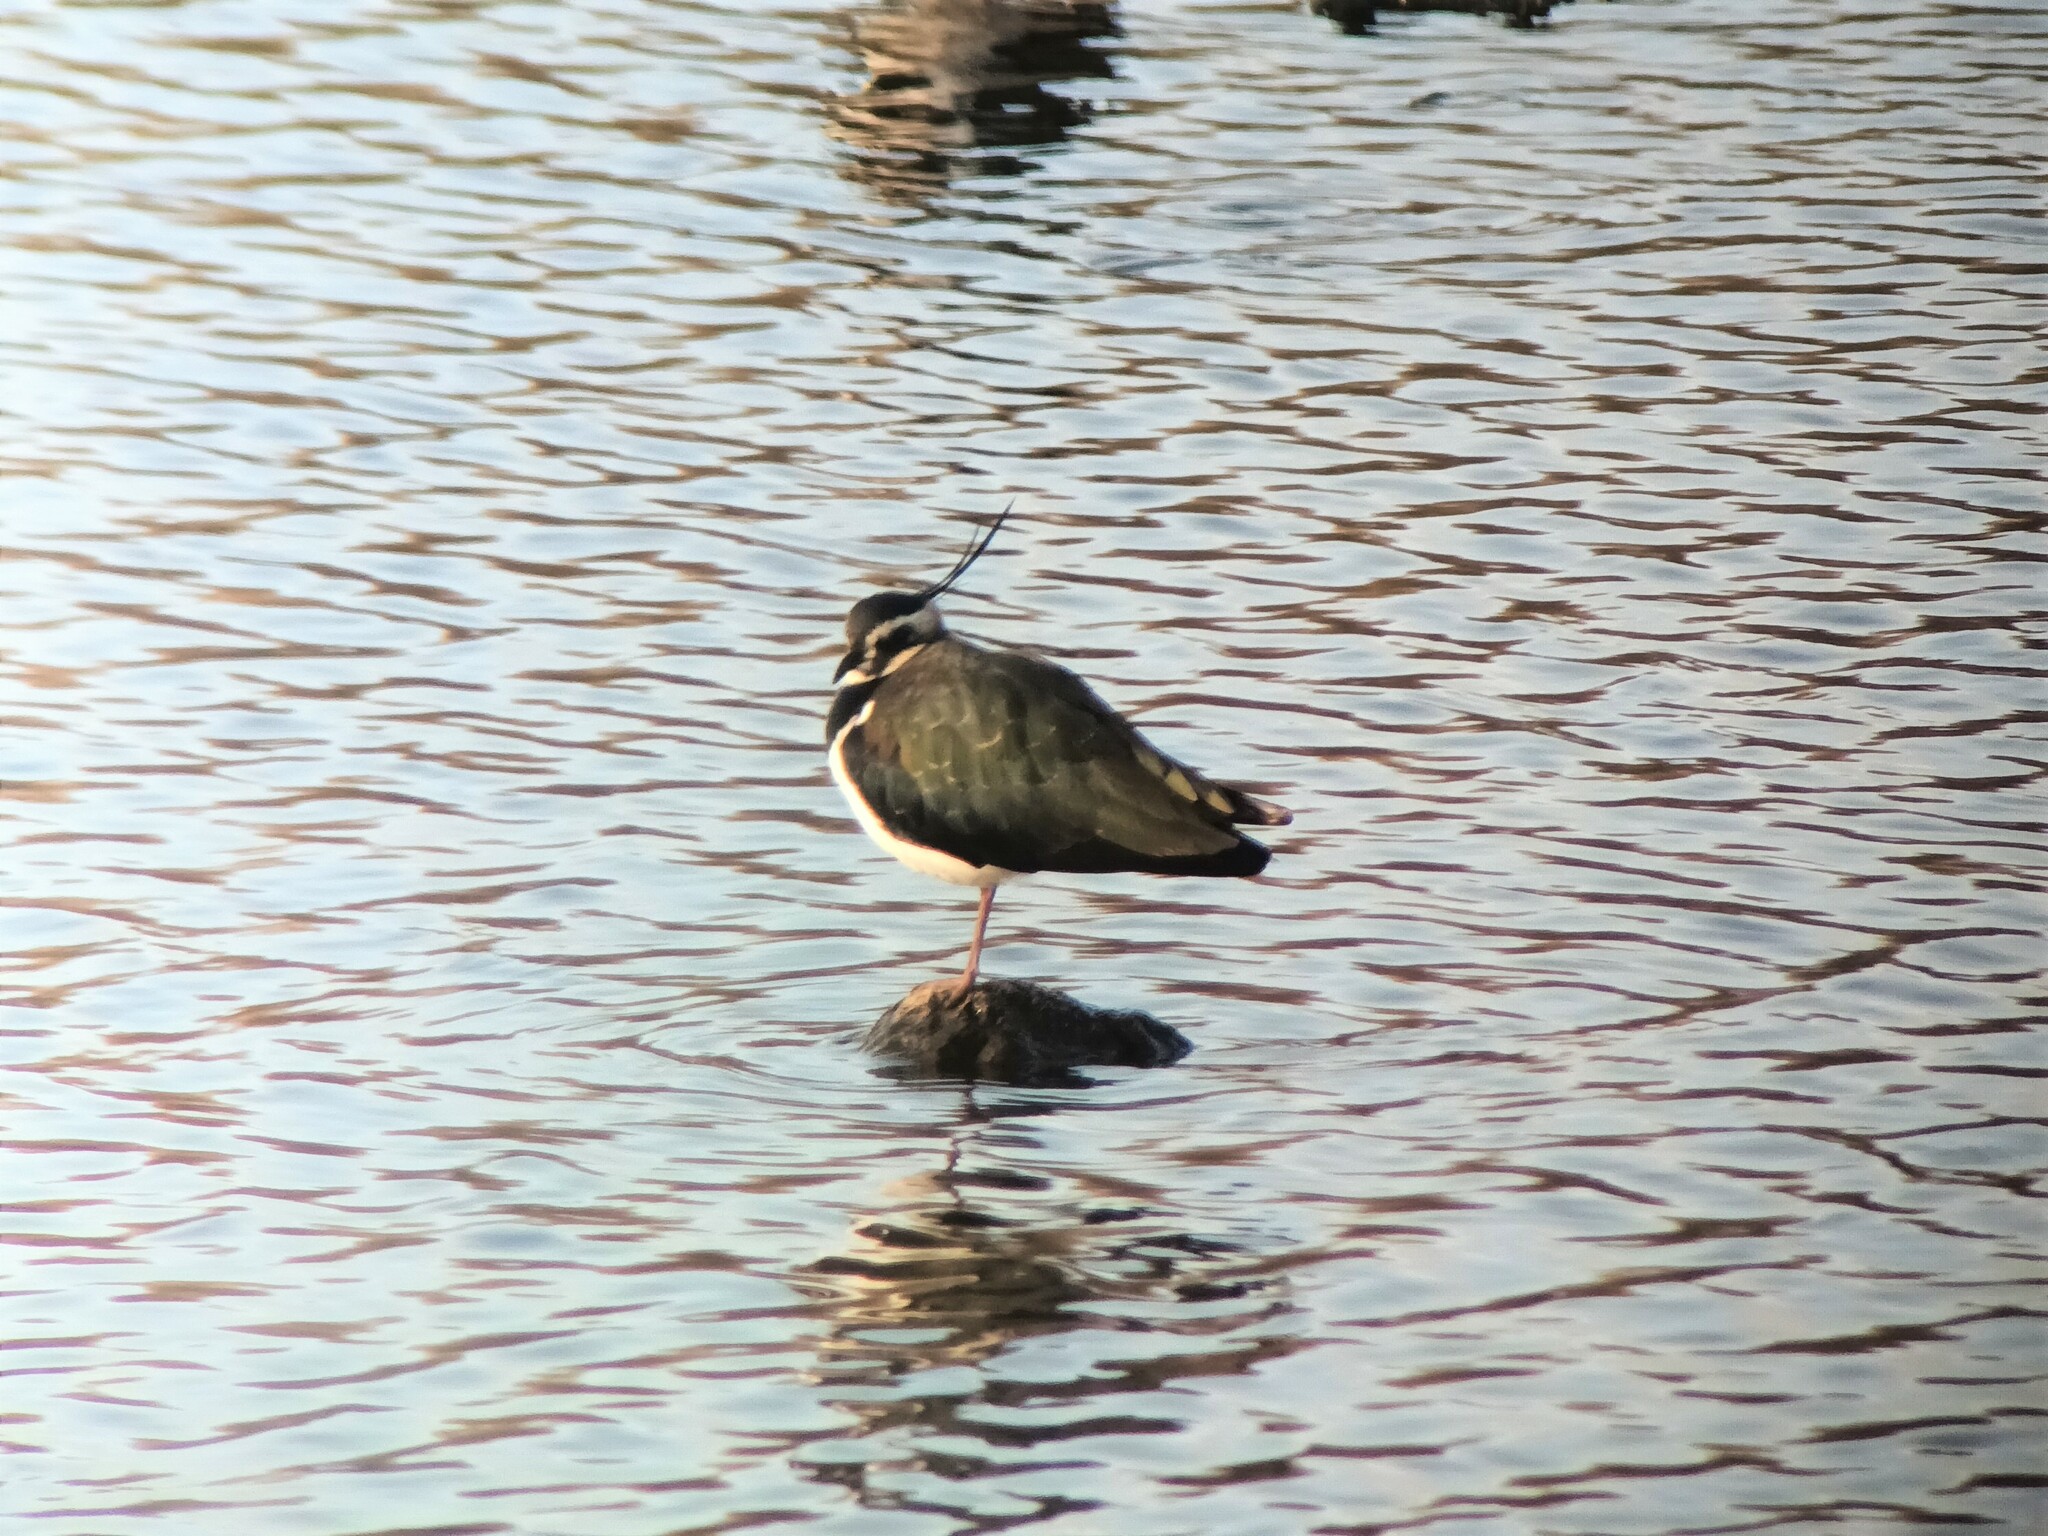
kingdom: Animalia
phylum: Chordata
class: Aves
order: Charadriiformes
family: Charadriidae
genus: Vanellus
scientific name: Vanellus vanellus
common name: Northern lapwing
